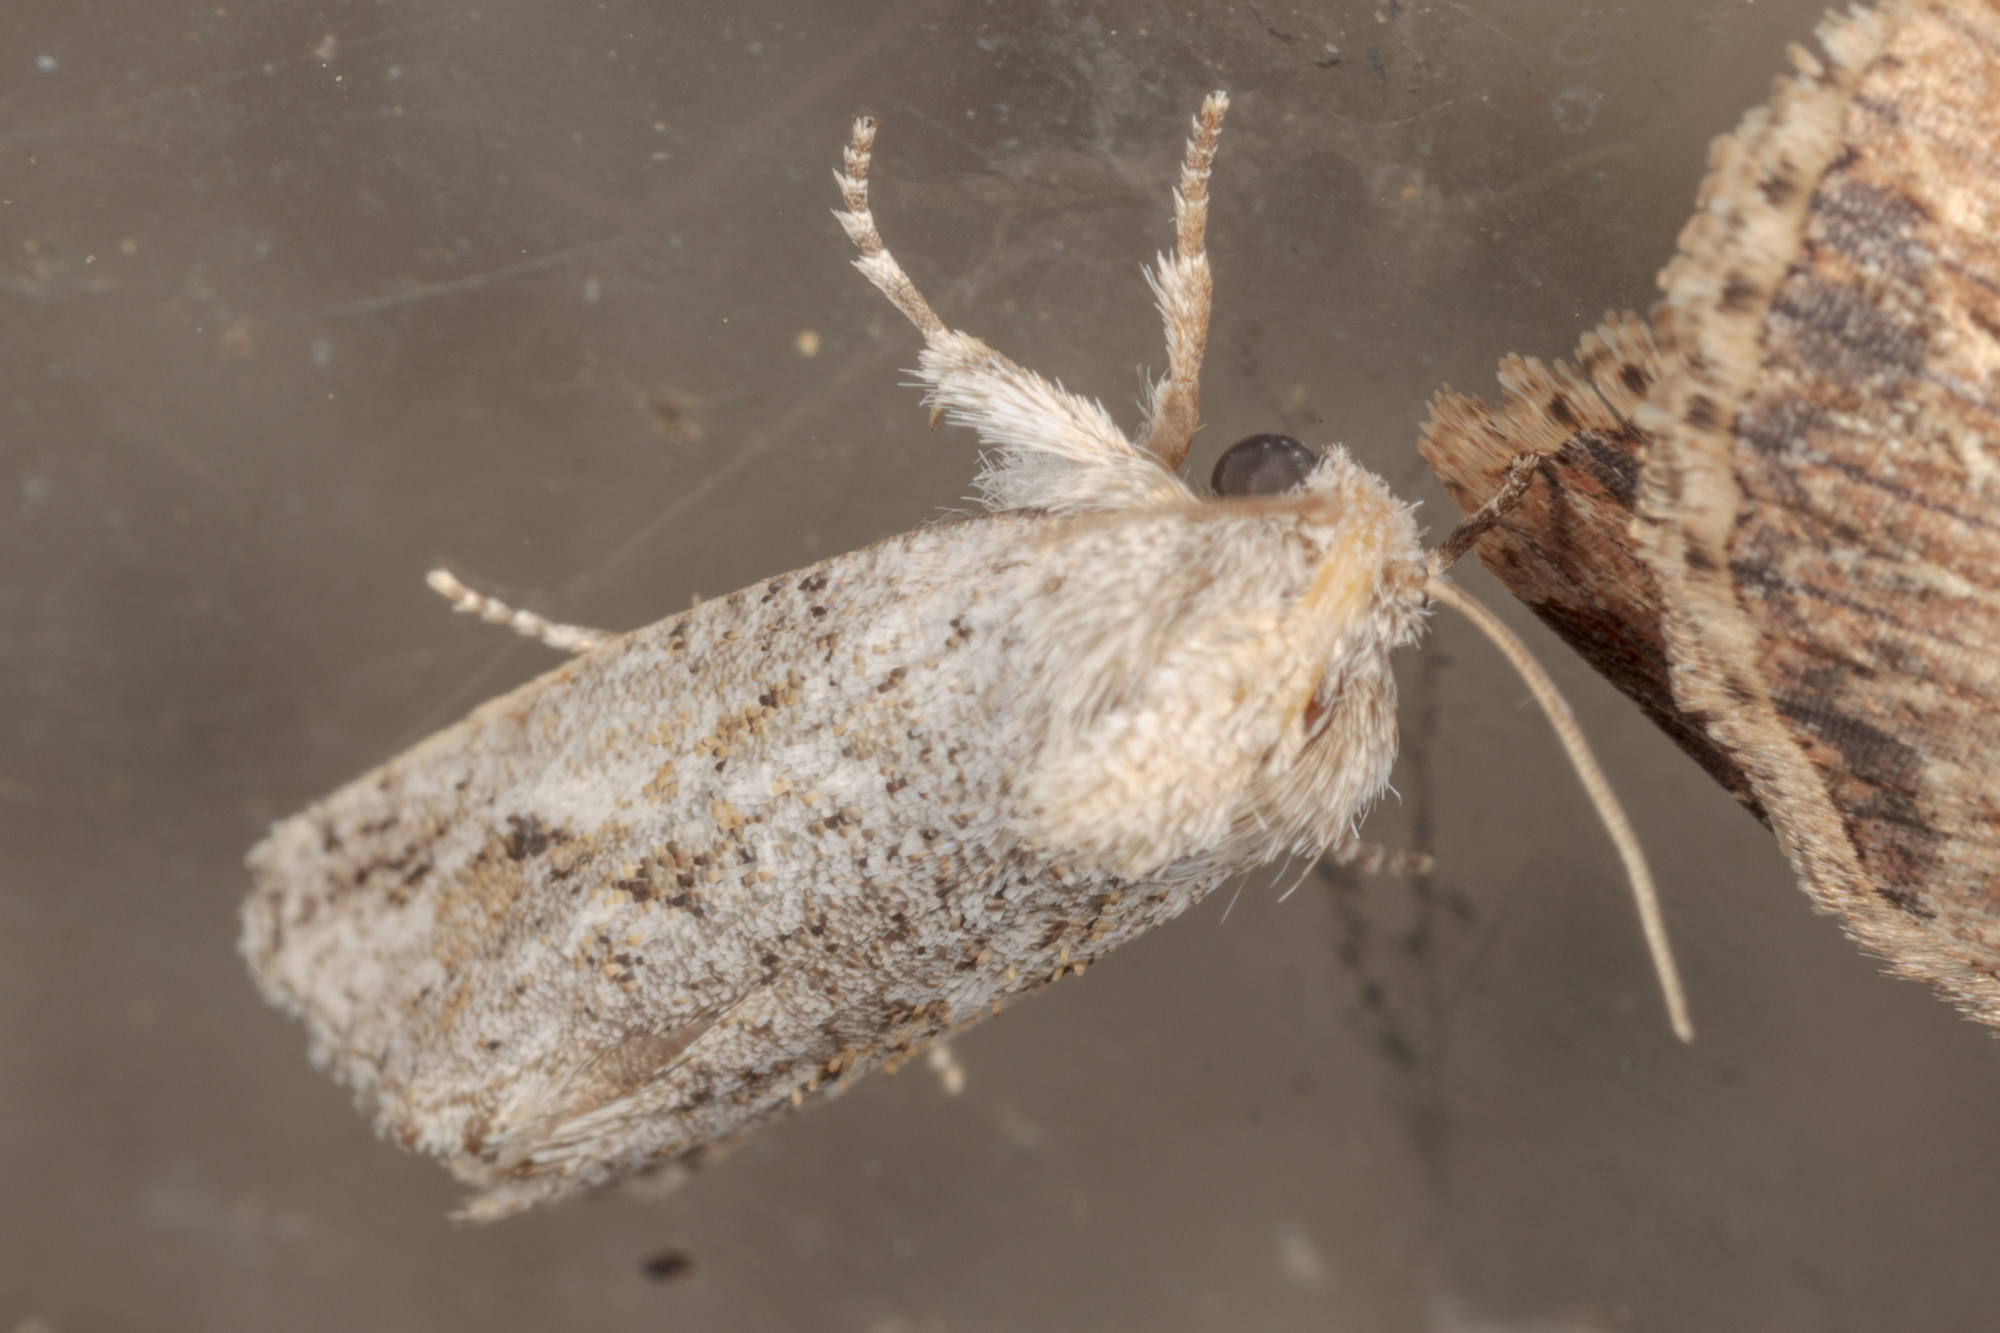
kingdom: Animalia
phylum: Arthropoda
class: Insecta
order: Lepidoptera
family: Tineidae
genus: Acrolophus
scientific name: Acrolophus griseus
